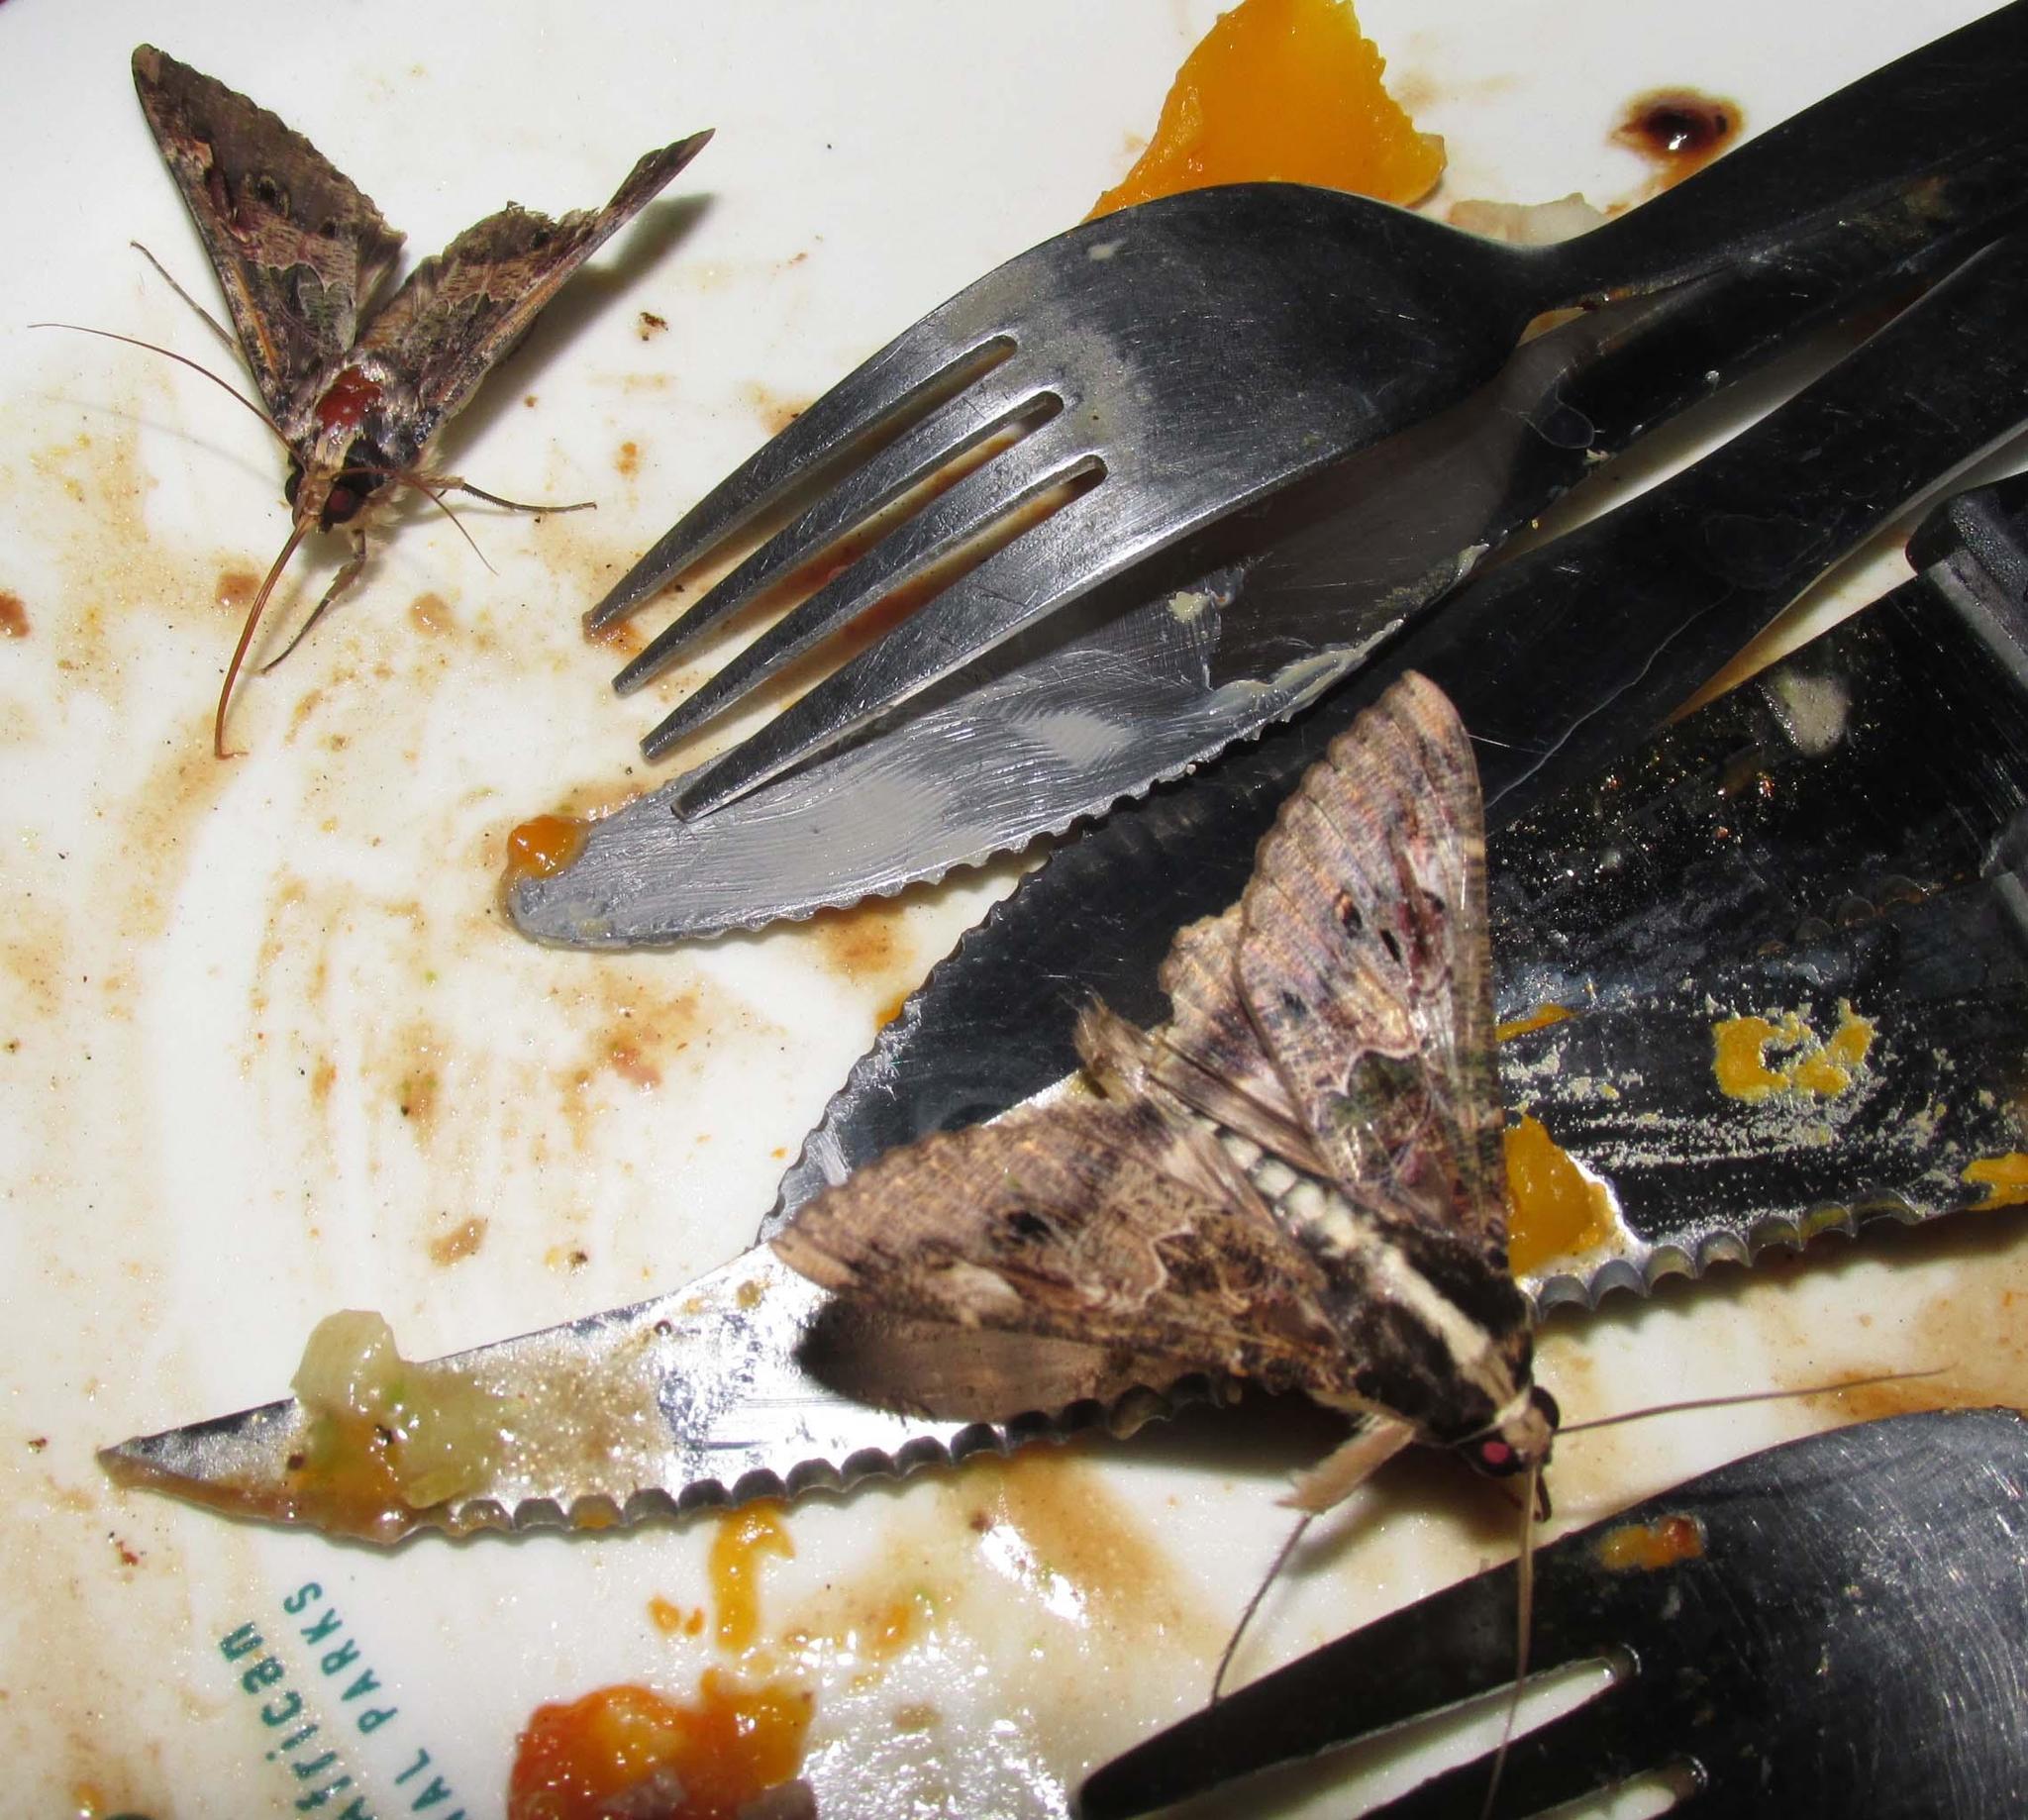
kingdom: Animalia
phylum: Arthropoda
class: Insecta
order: Lepidoptera
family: Erebidae
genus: Sphingomorpha
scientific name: Sphingomorpha chlorea
